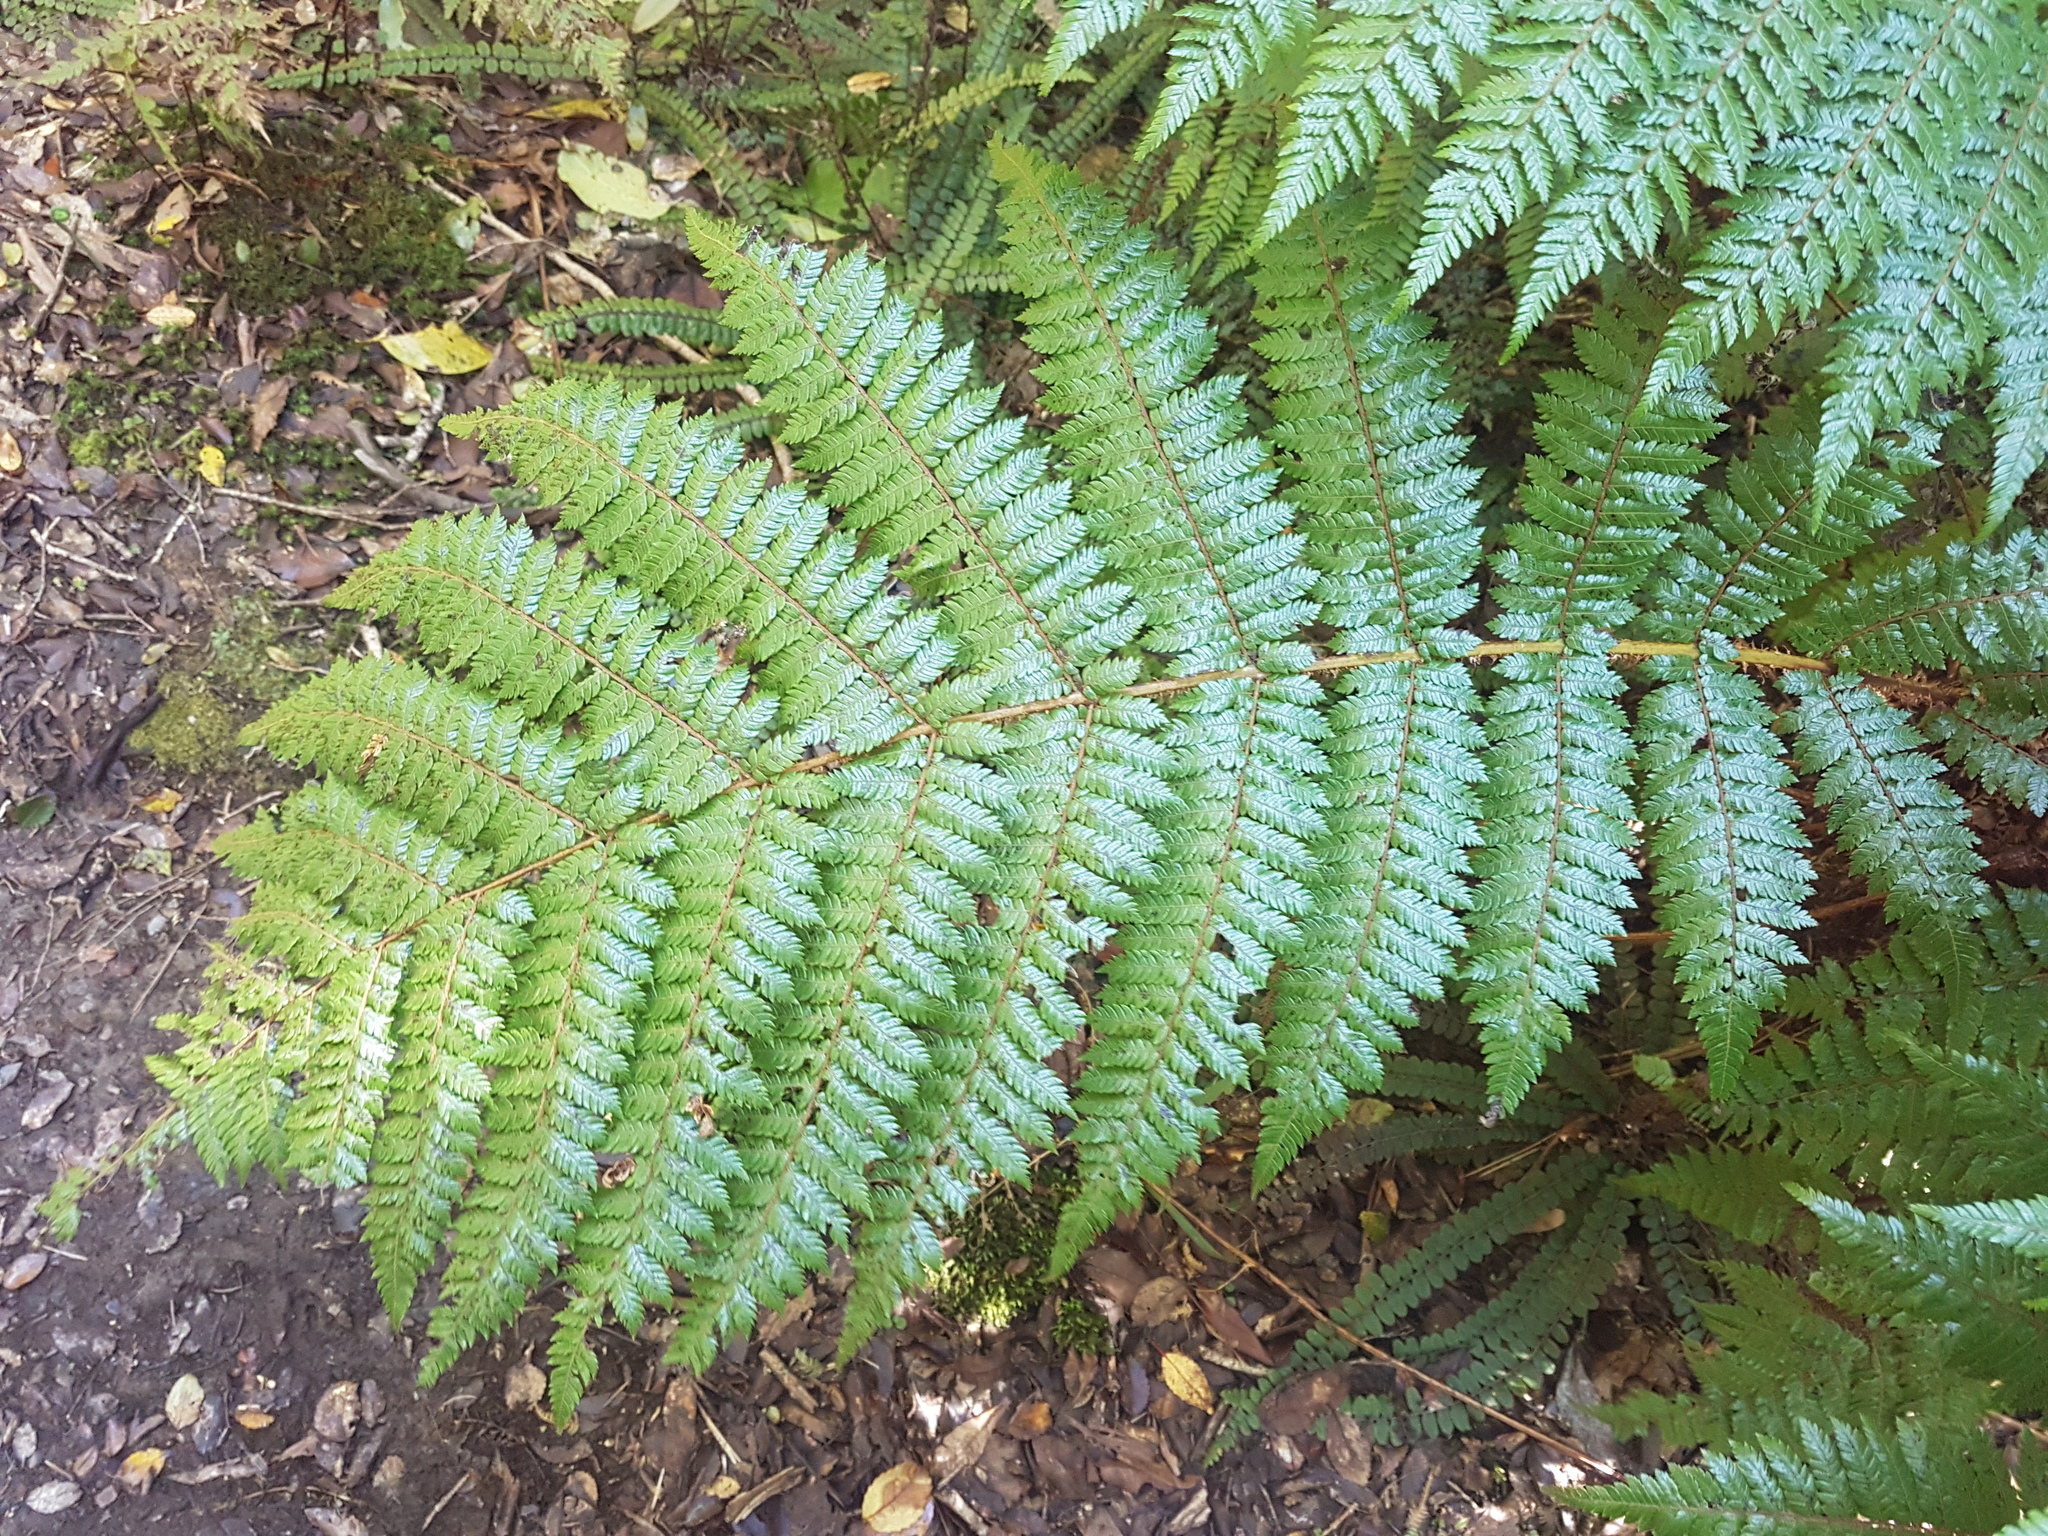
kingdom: Plantae
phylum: Tracheophyta
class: Polypodiopsida
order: Cyatheales
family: Cyatheaceae
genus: Alsophila
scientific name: Alsophila smithii
